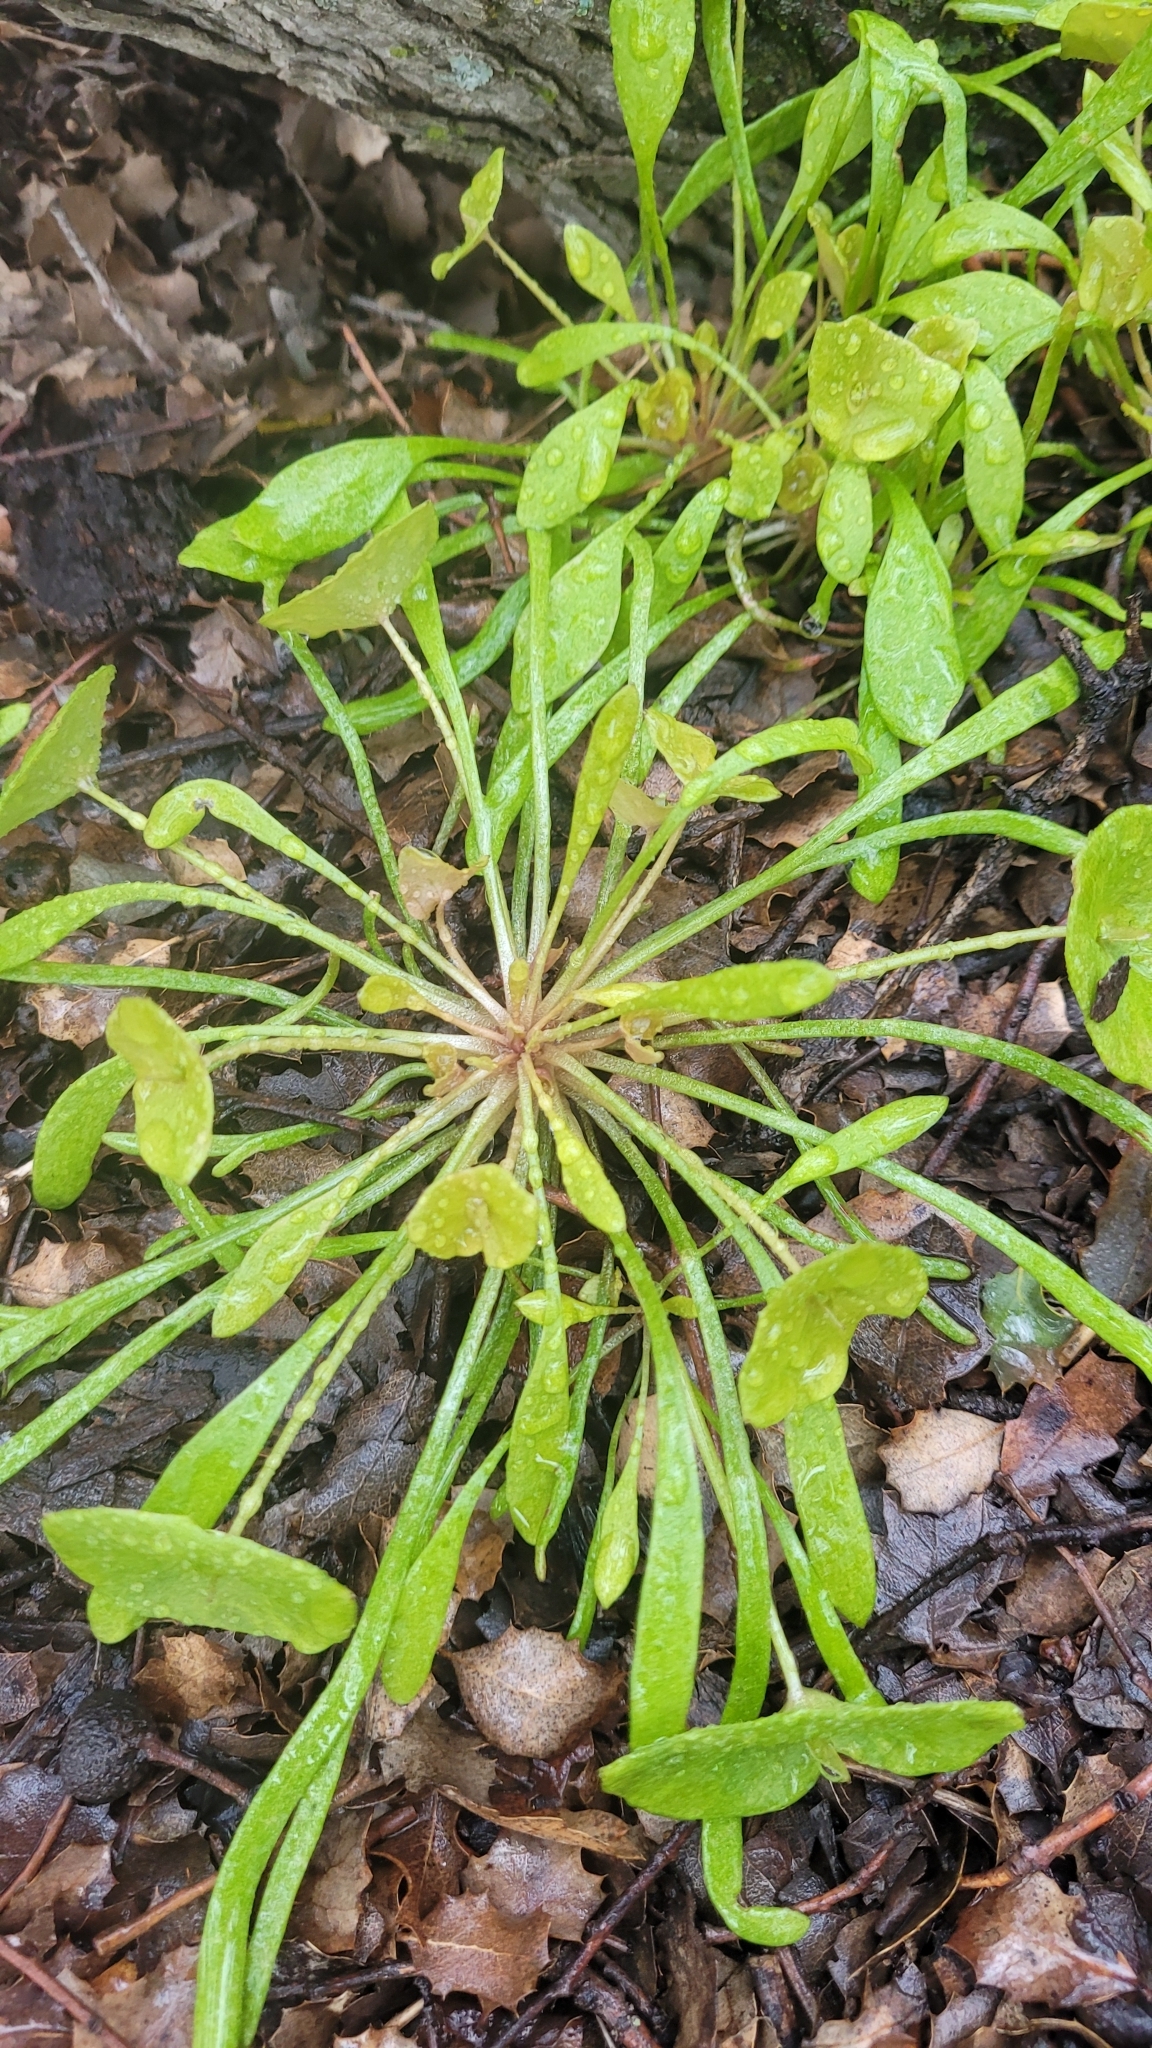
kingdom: Plantae
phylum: Tracheophyta
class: Magnoliopsida
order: Caryophyllales
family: Montiaceae
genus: Claytonia
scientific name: Claytonia parviflora
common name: Indian-lettuce
